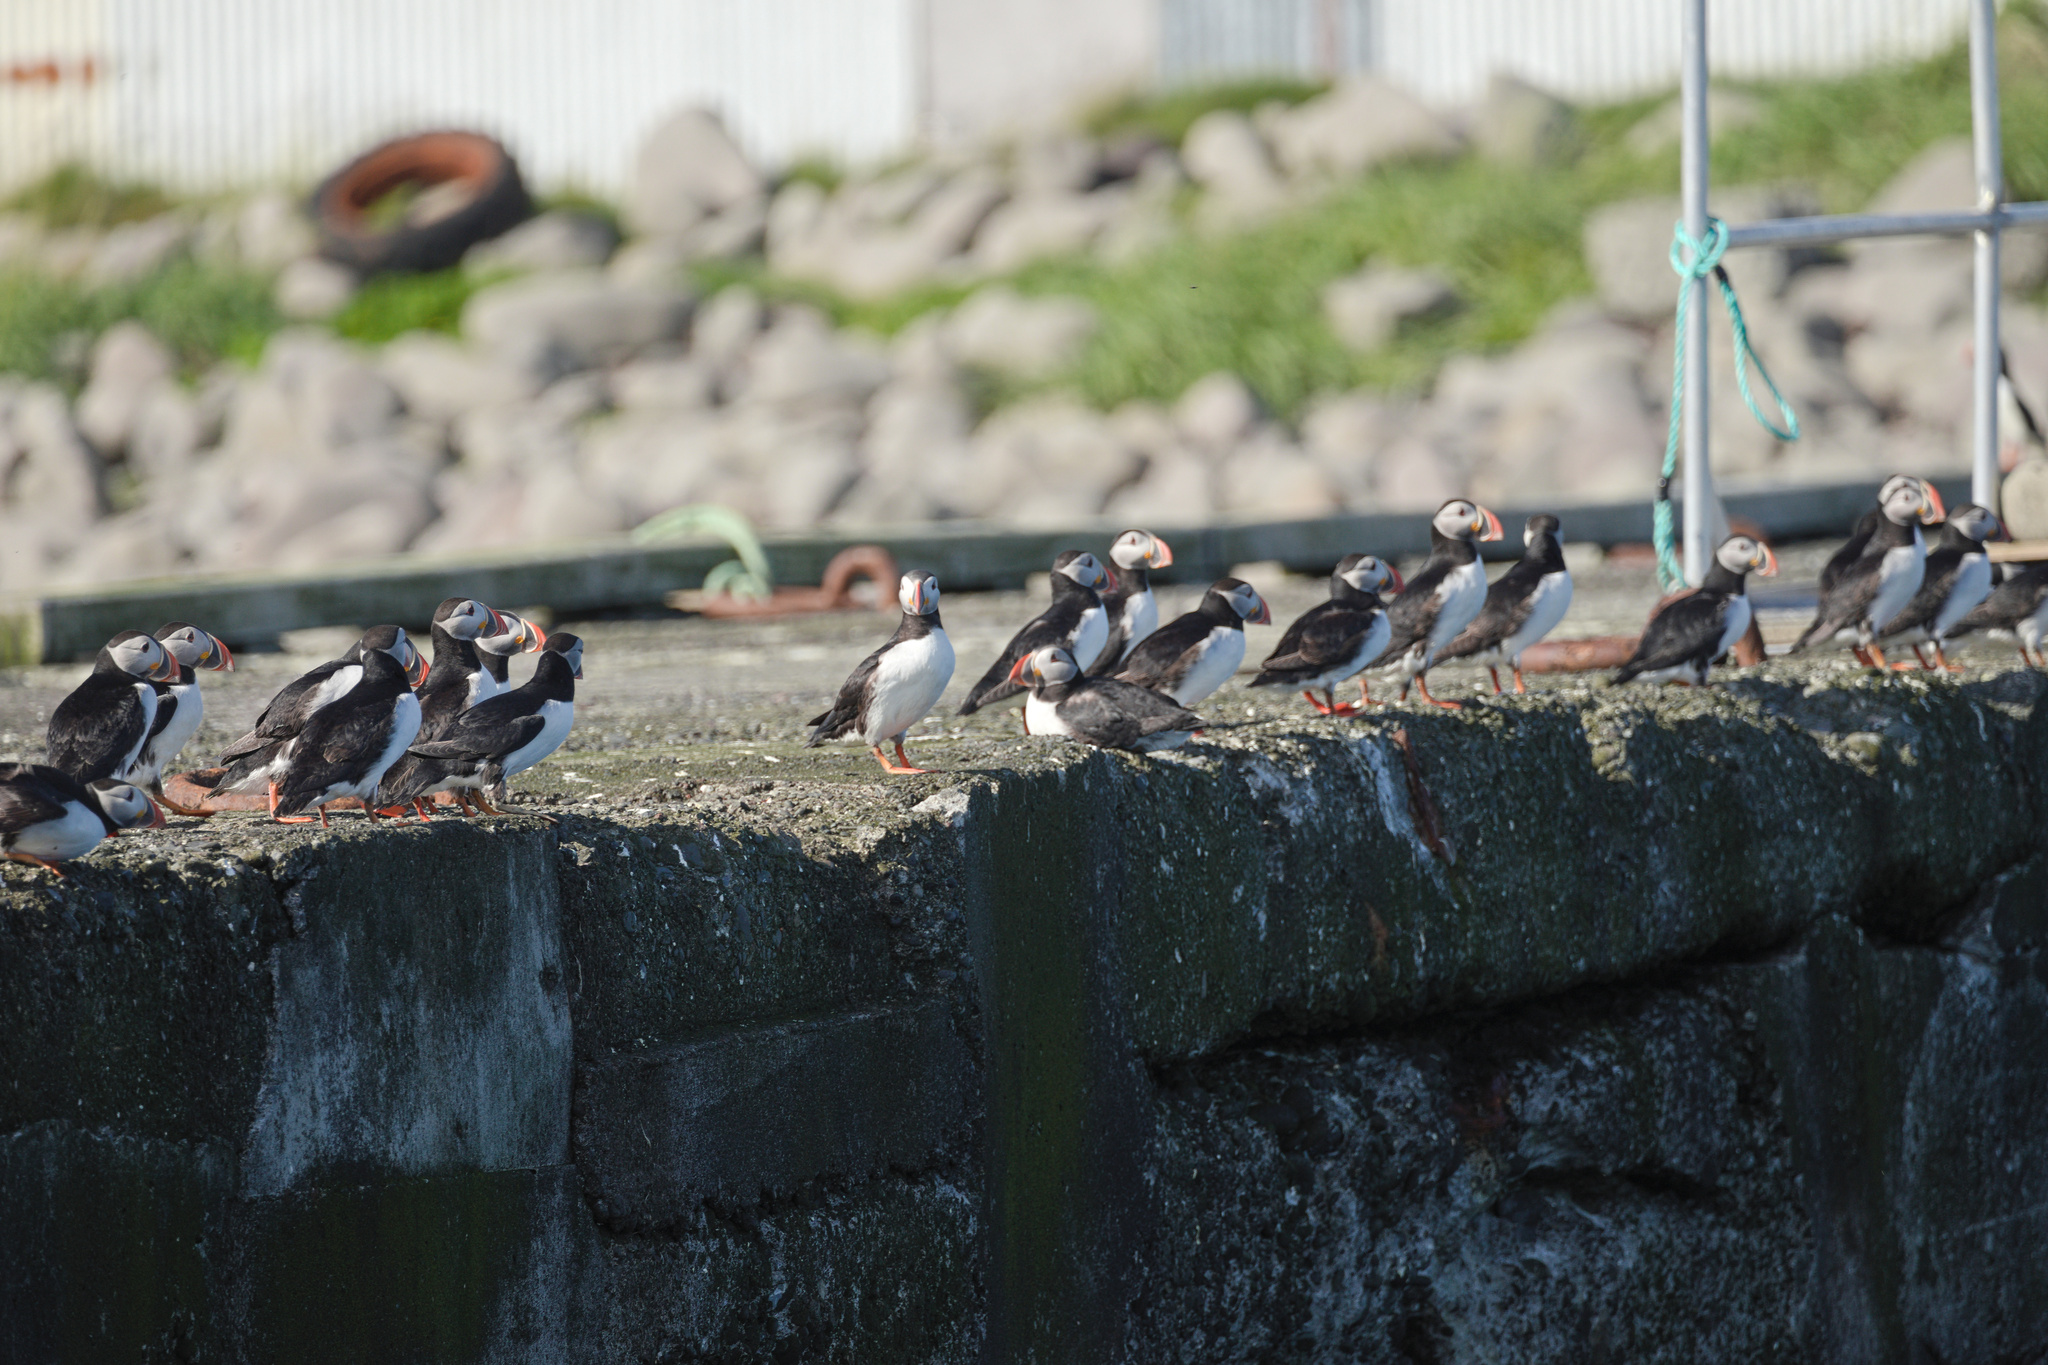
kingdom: Animalia
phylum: Chordata
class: Aves
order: Charadriiformes
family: Alcidae
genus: Fratercula
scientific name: Fratercula arctica
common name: Atlantic puffin
